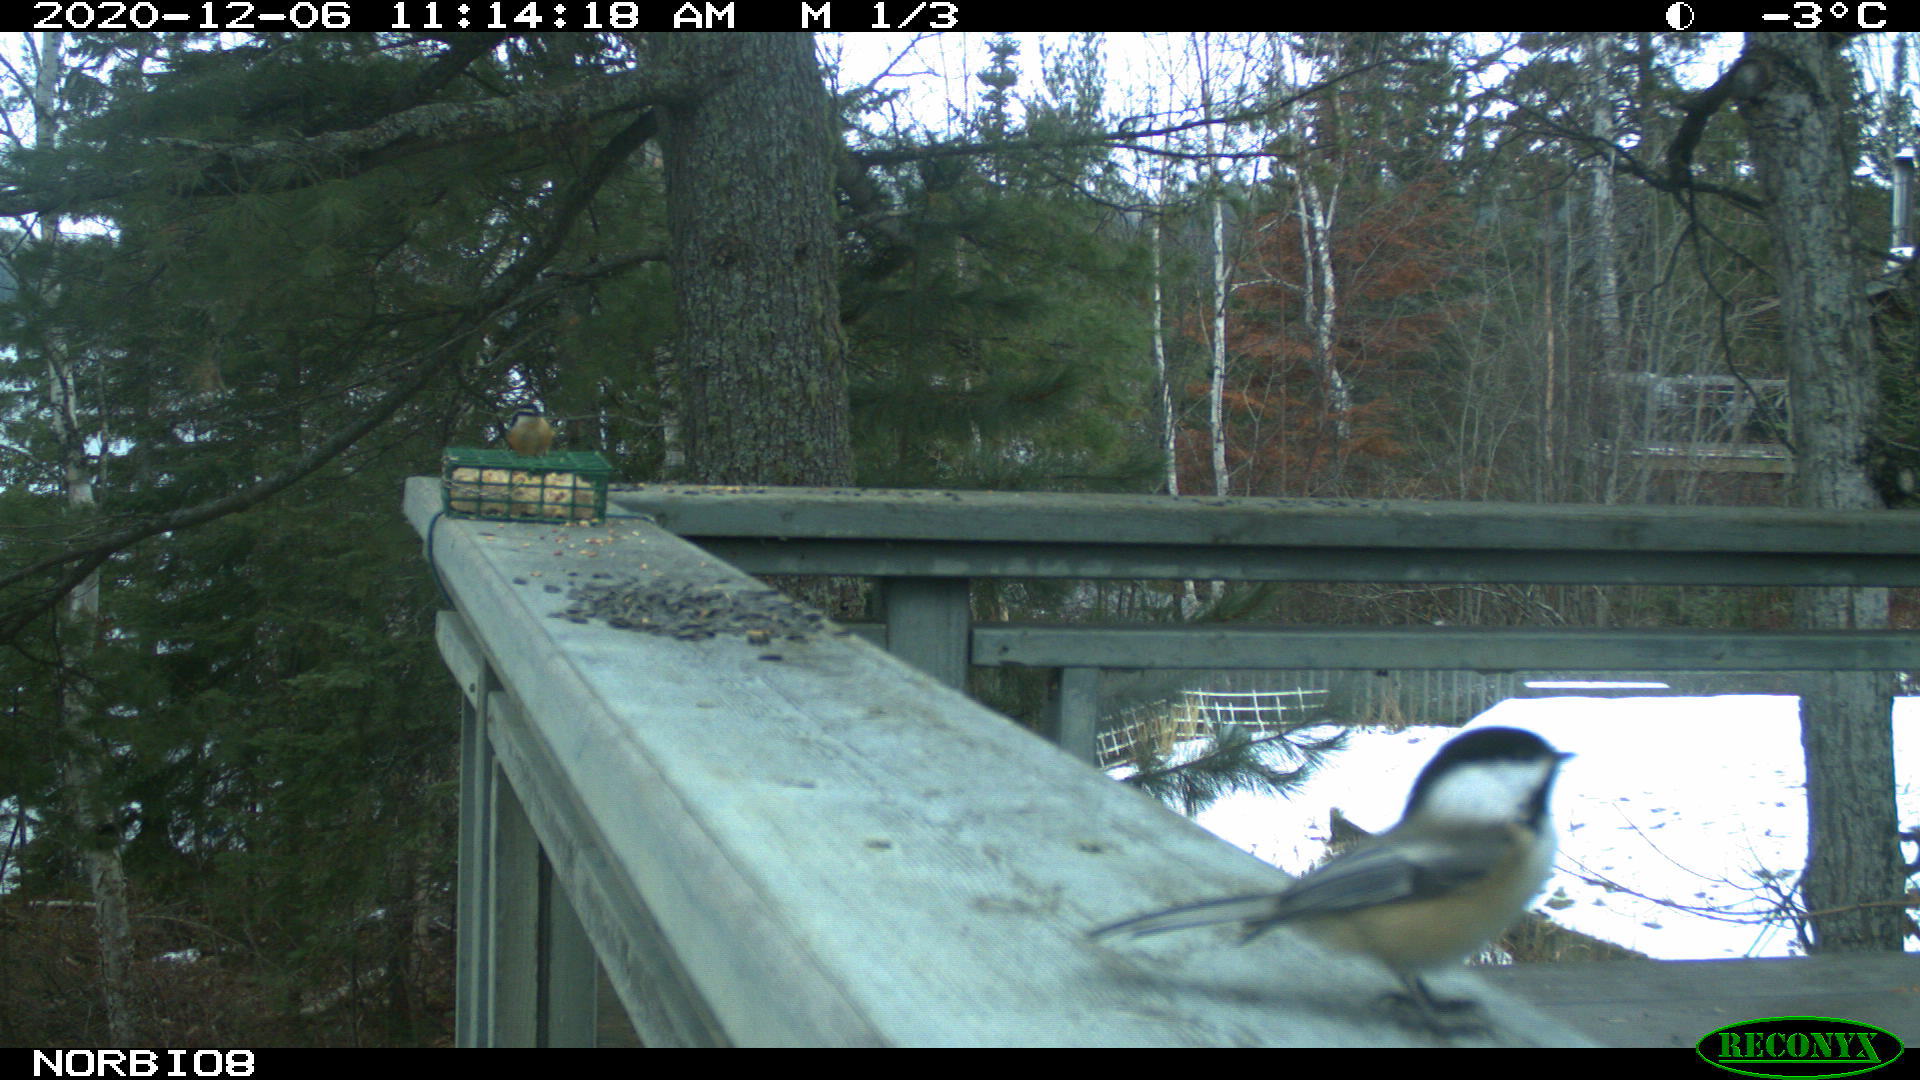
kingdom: Animalia
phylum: Chordata
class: Aves
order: Passeriformes
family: Paridae
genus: Poecile
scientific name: Poecile atricapillus
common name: Black-capped chickadee
